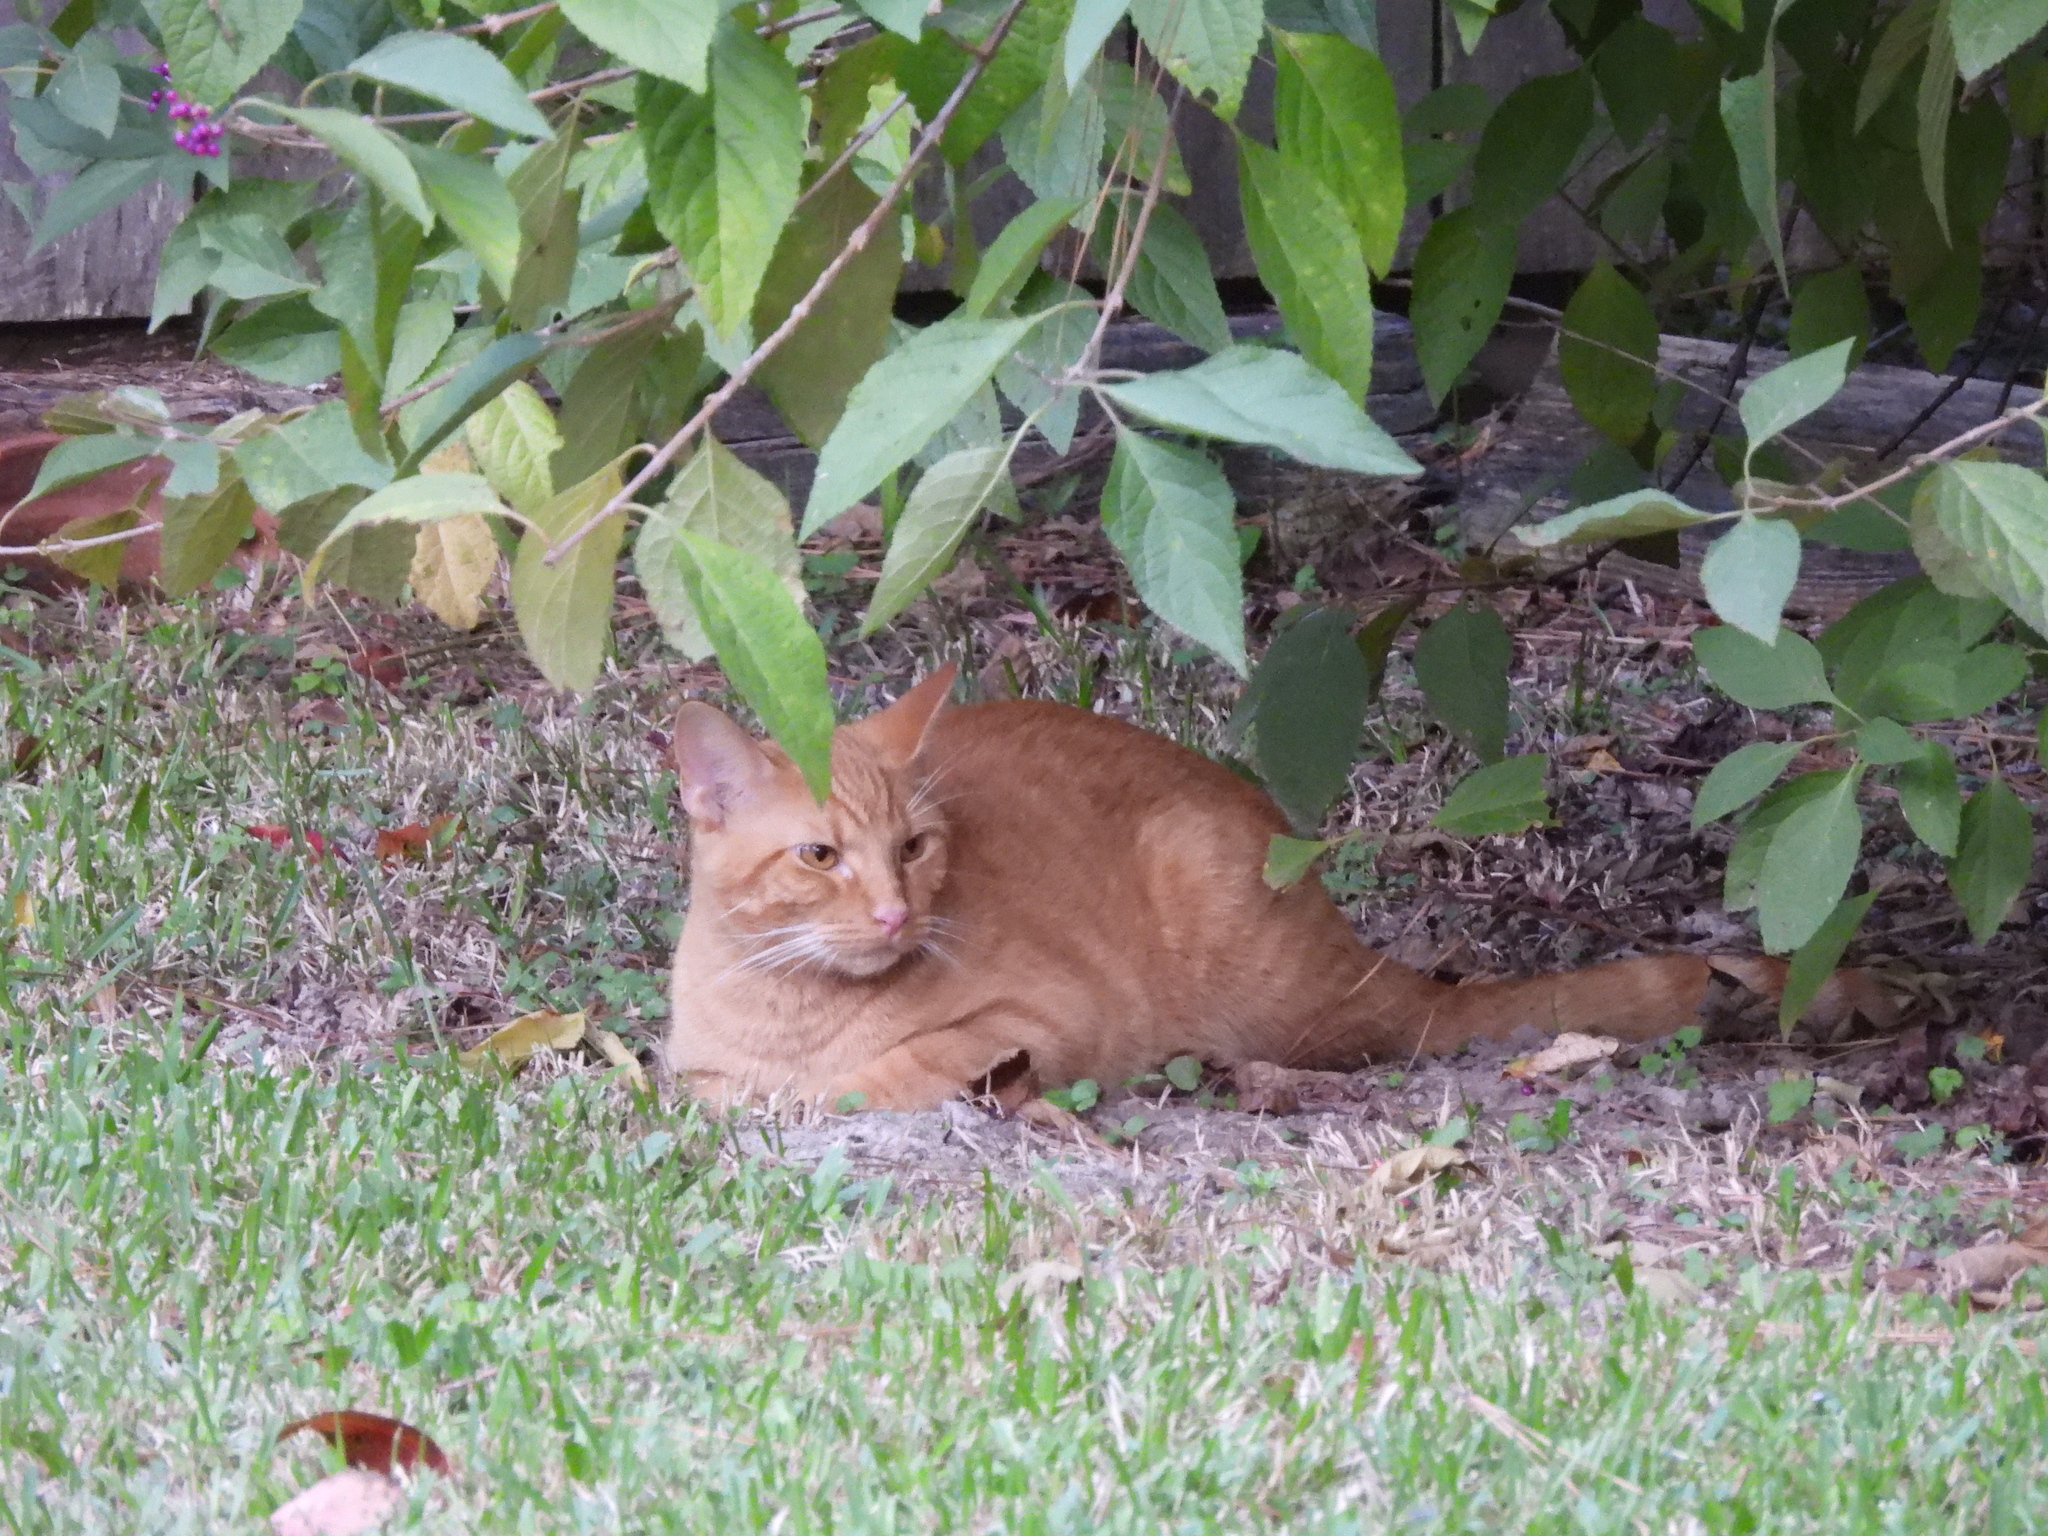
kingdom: Animalia
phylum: Chordata
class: Mammalia
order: Carnivora
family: Felidae
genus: Felis
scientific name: Felis catus
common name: Domestic cat
